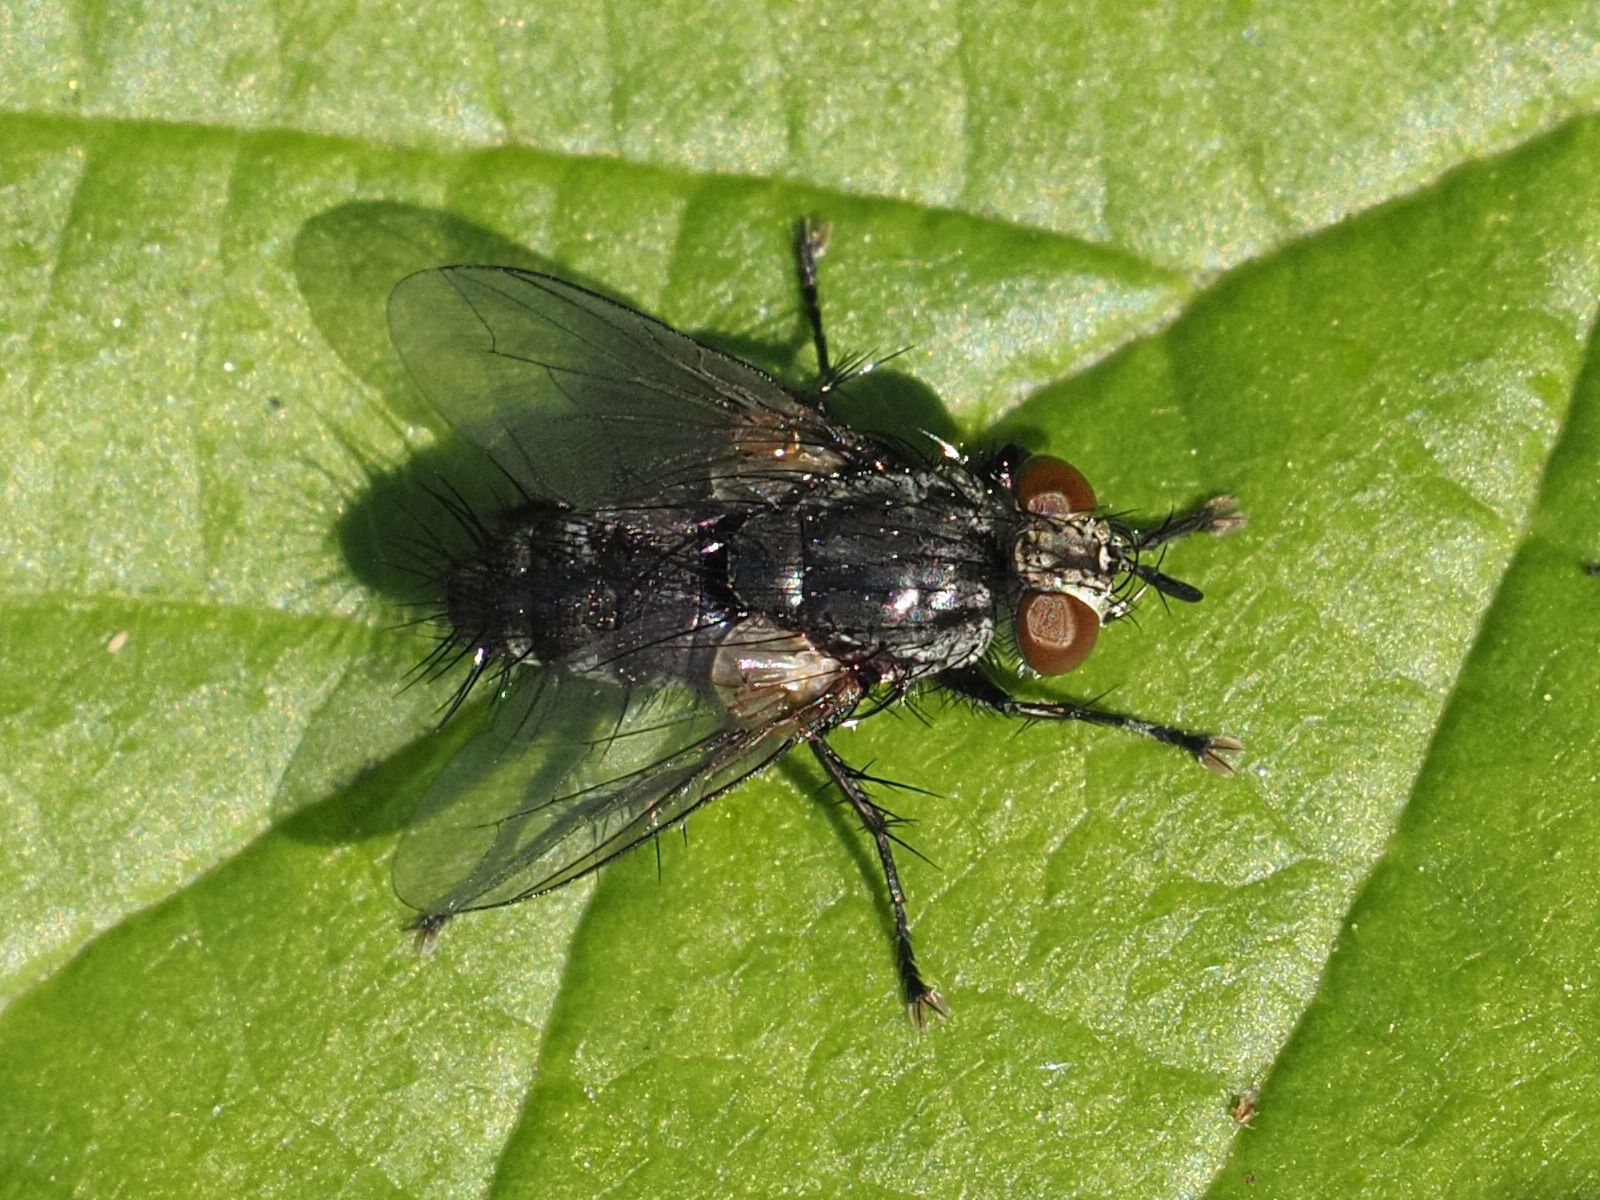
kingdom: Animalia
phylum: Arthropoda
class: Insecta
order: Diptera
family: Tachinidae
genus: Voria
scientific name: Voria ruralis
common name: Parasitic fly
